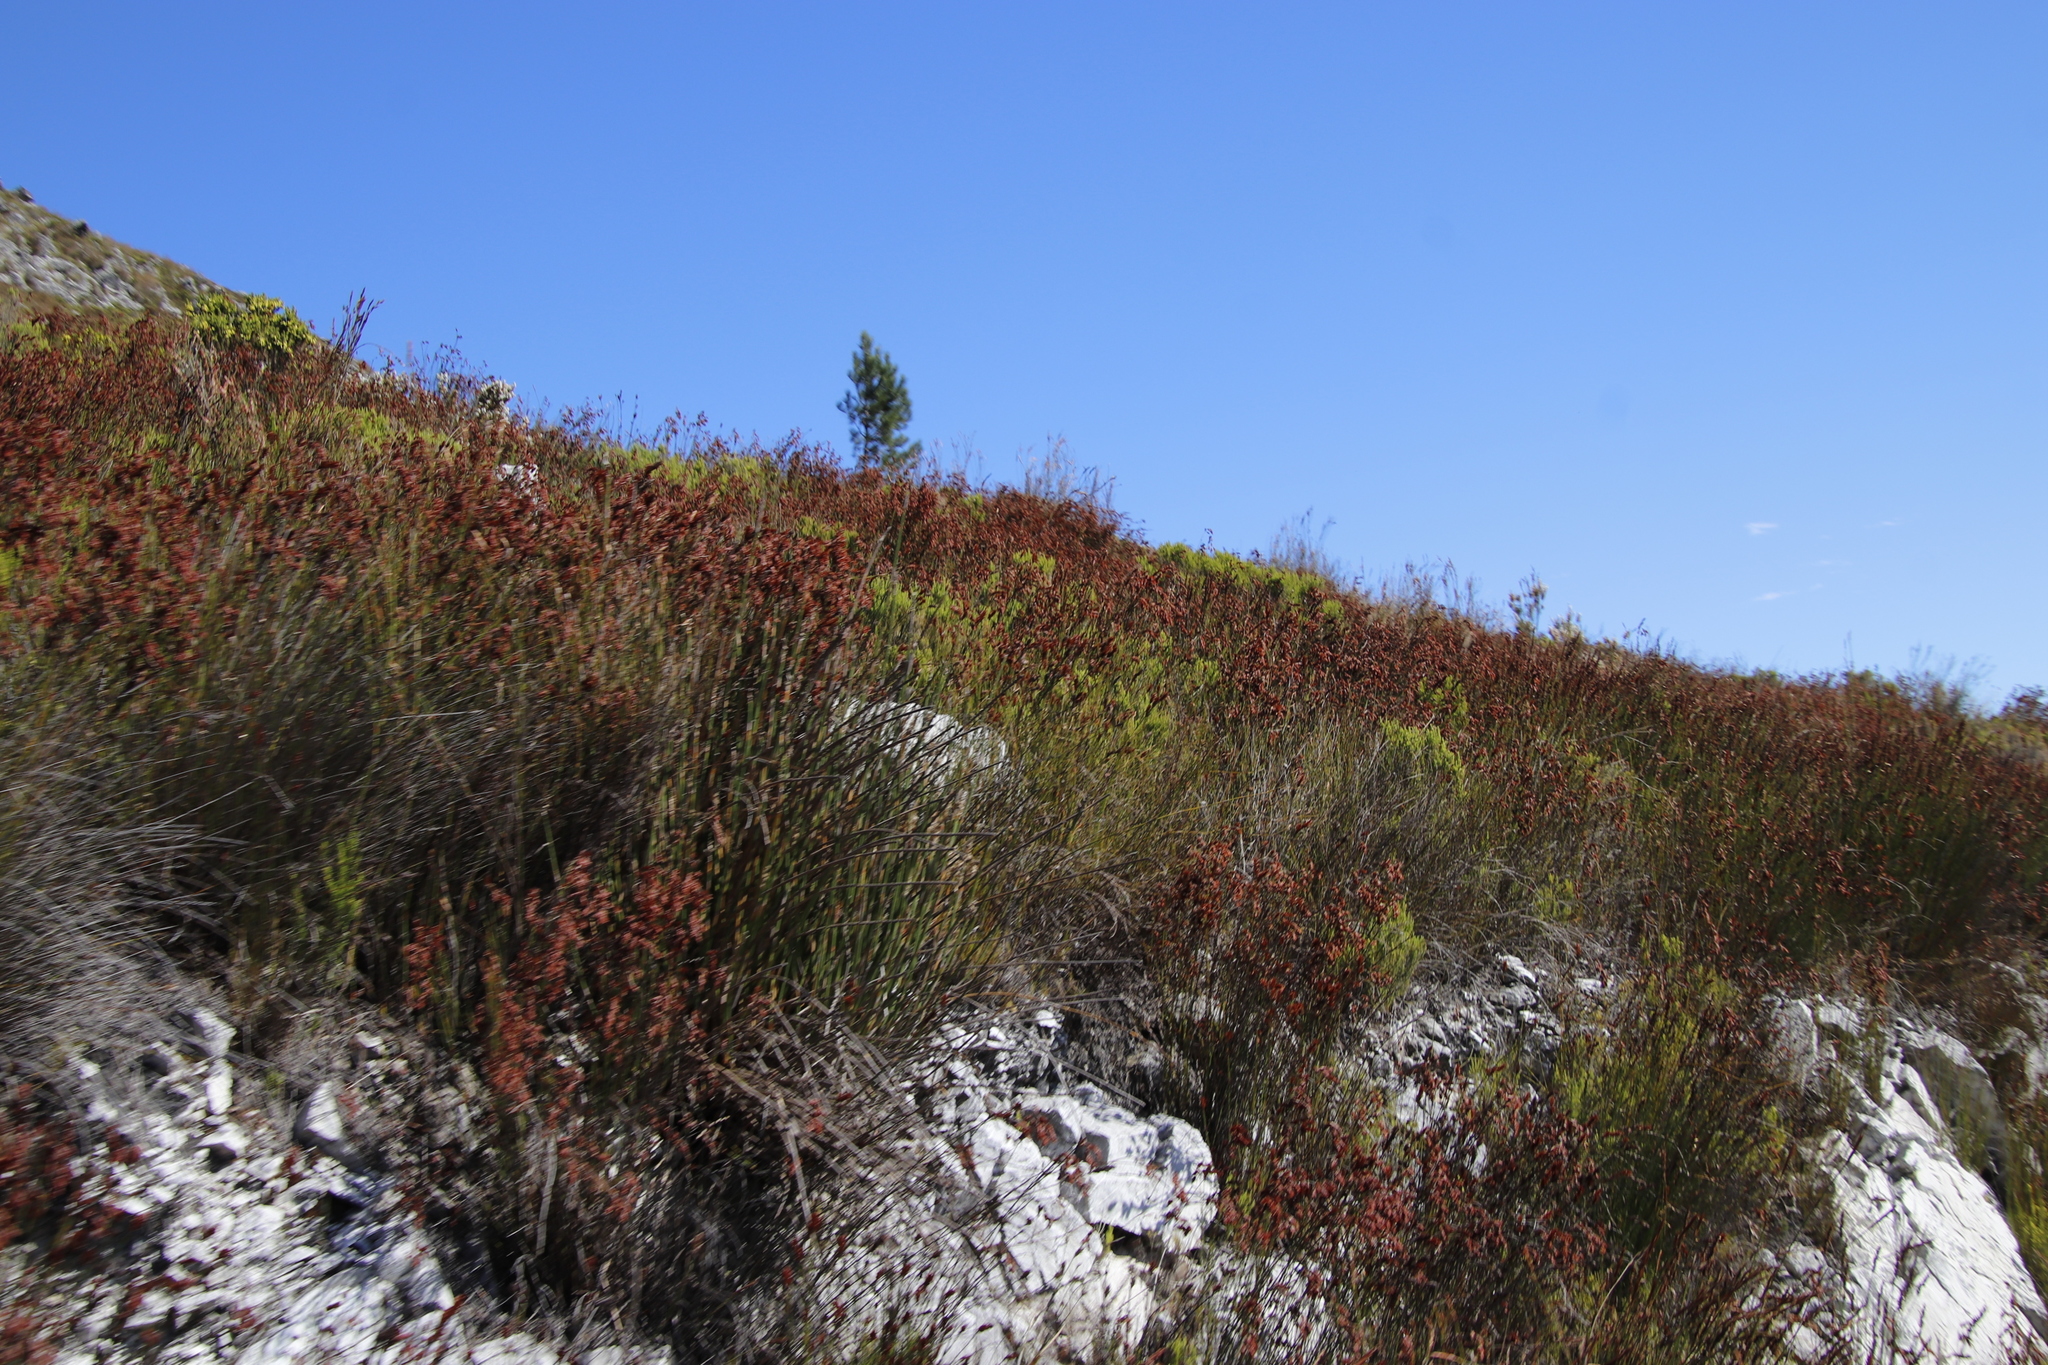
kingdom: Plantae
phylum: Tracheophyta
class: Pinopsida
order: Pinales
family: Pinaceae
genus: Pinus
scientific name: Pinus pinaster
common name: Maritime pine
